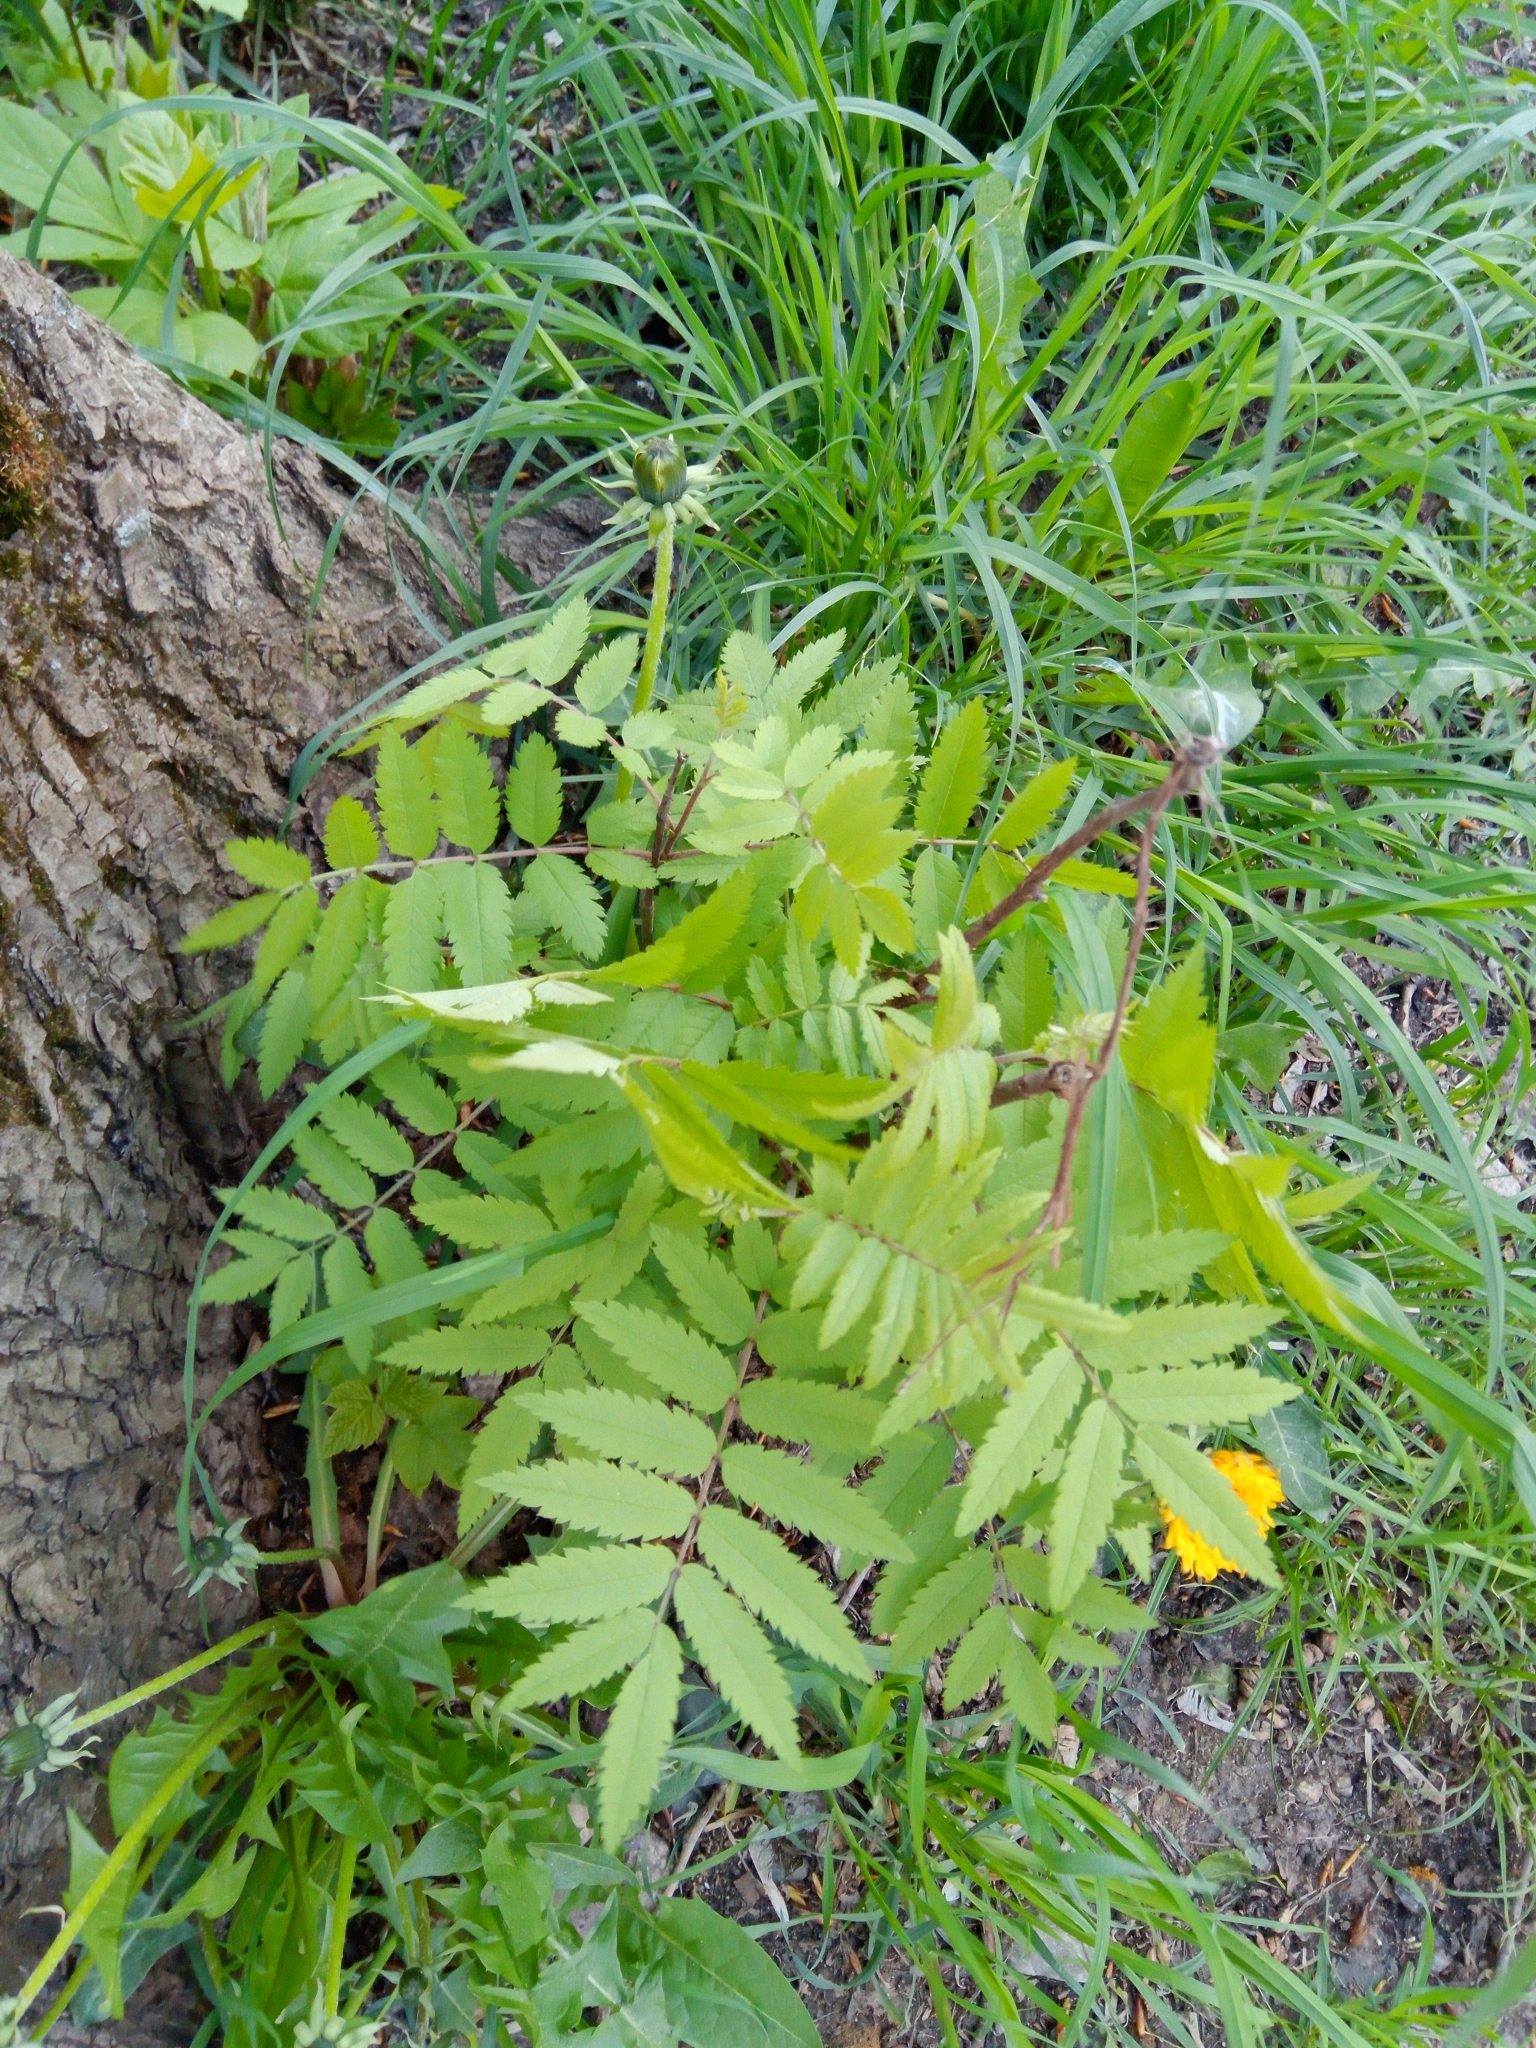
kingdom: Plantae
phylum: Tracheophyta
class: Magnoliopsida
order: Rosales
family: Rosaceae
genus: Sorbus
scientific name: Sorbus aucuparia
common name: Rowan
